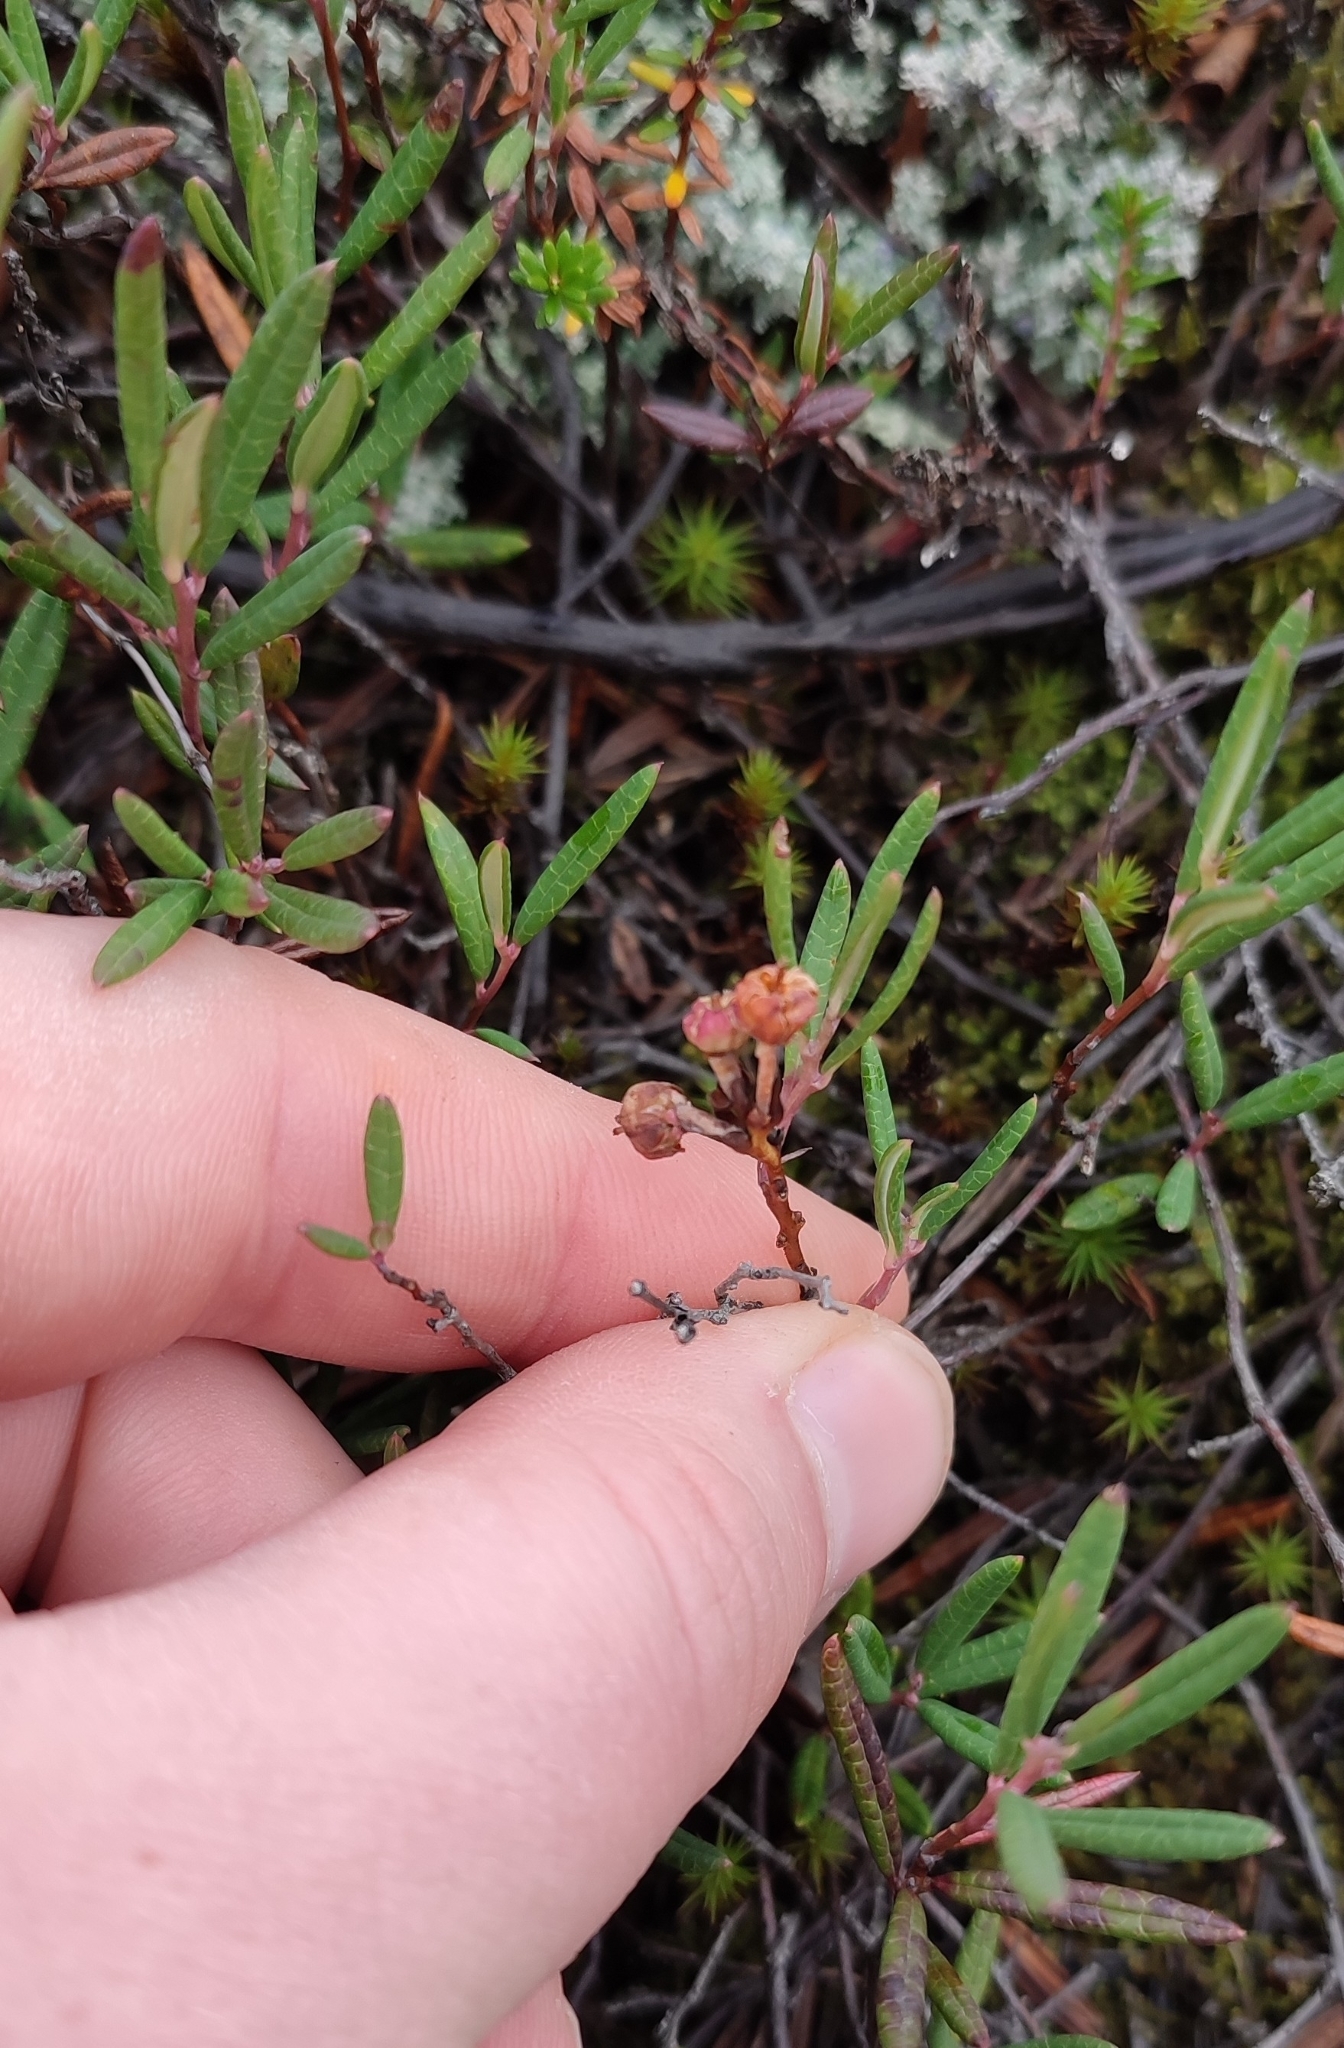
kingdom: Plantae
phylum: Tracheophyta
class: Magnoliopsida
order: Ericales
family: Ericaceae
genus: Andromeda
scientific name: Andromeda polifolia
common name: Bog-rosemary
